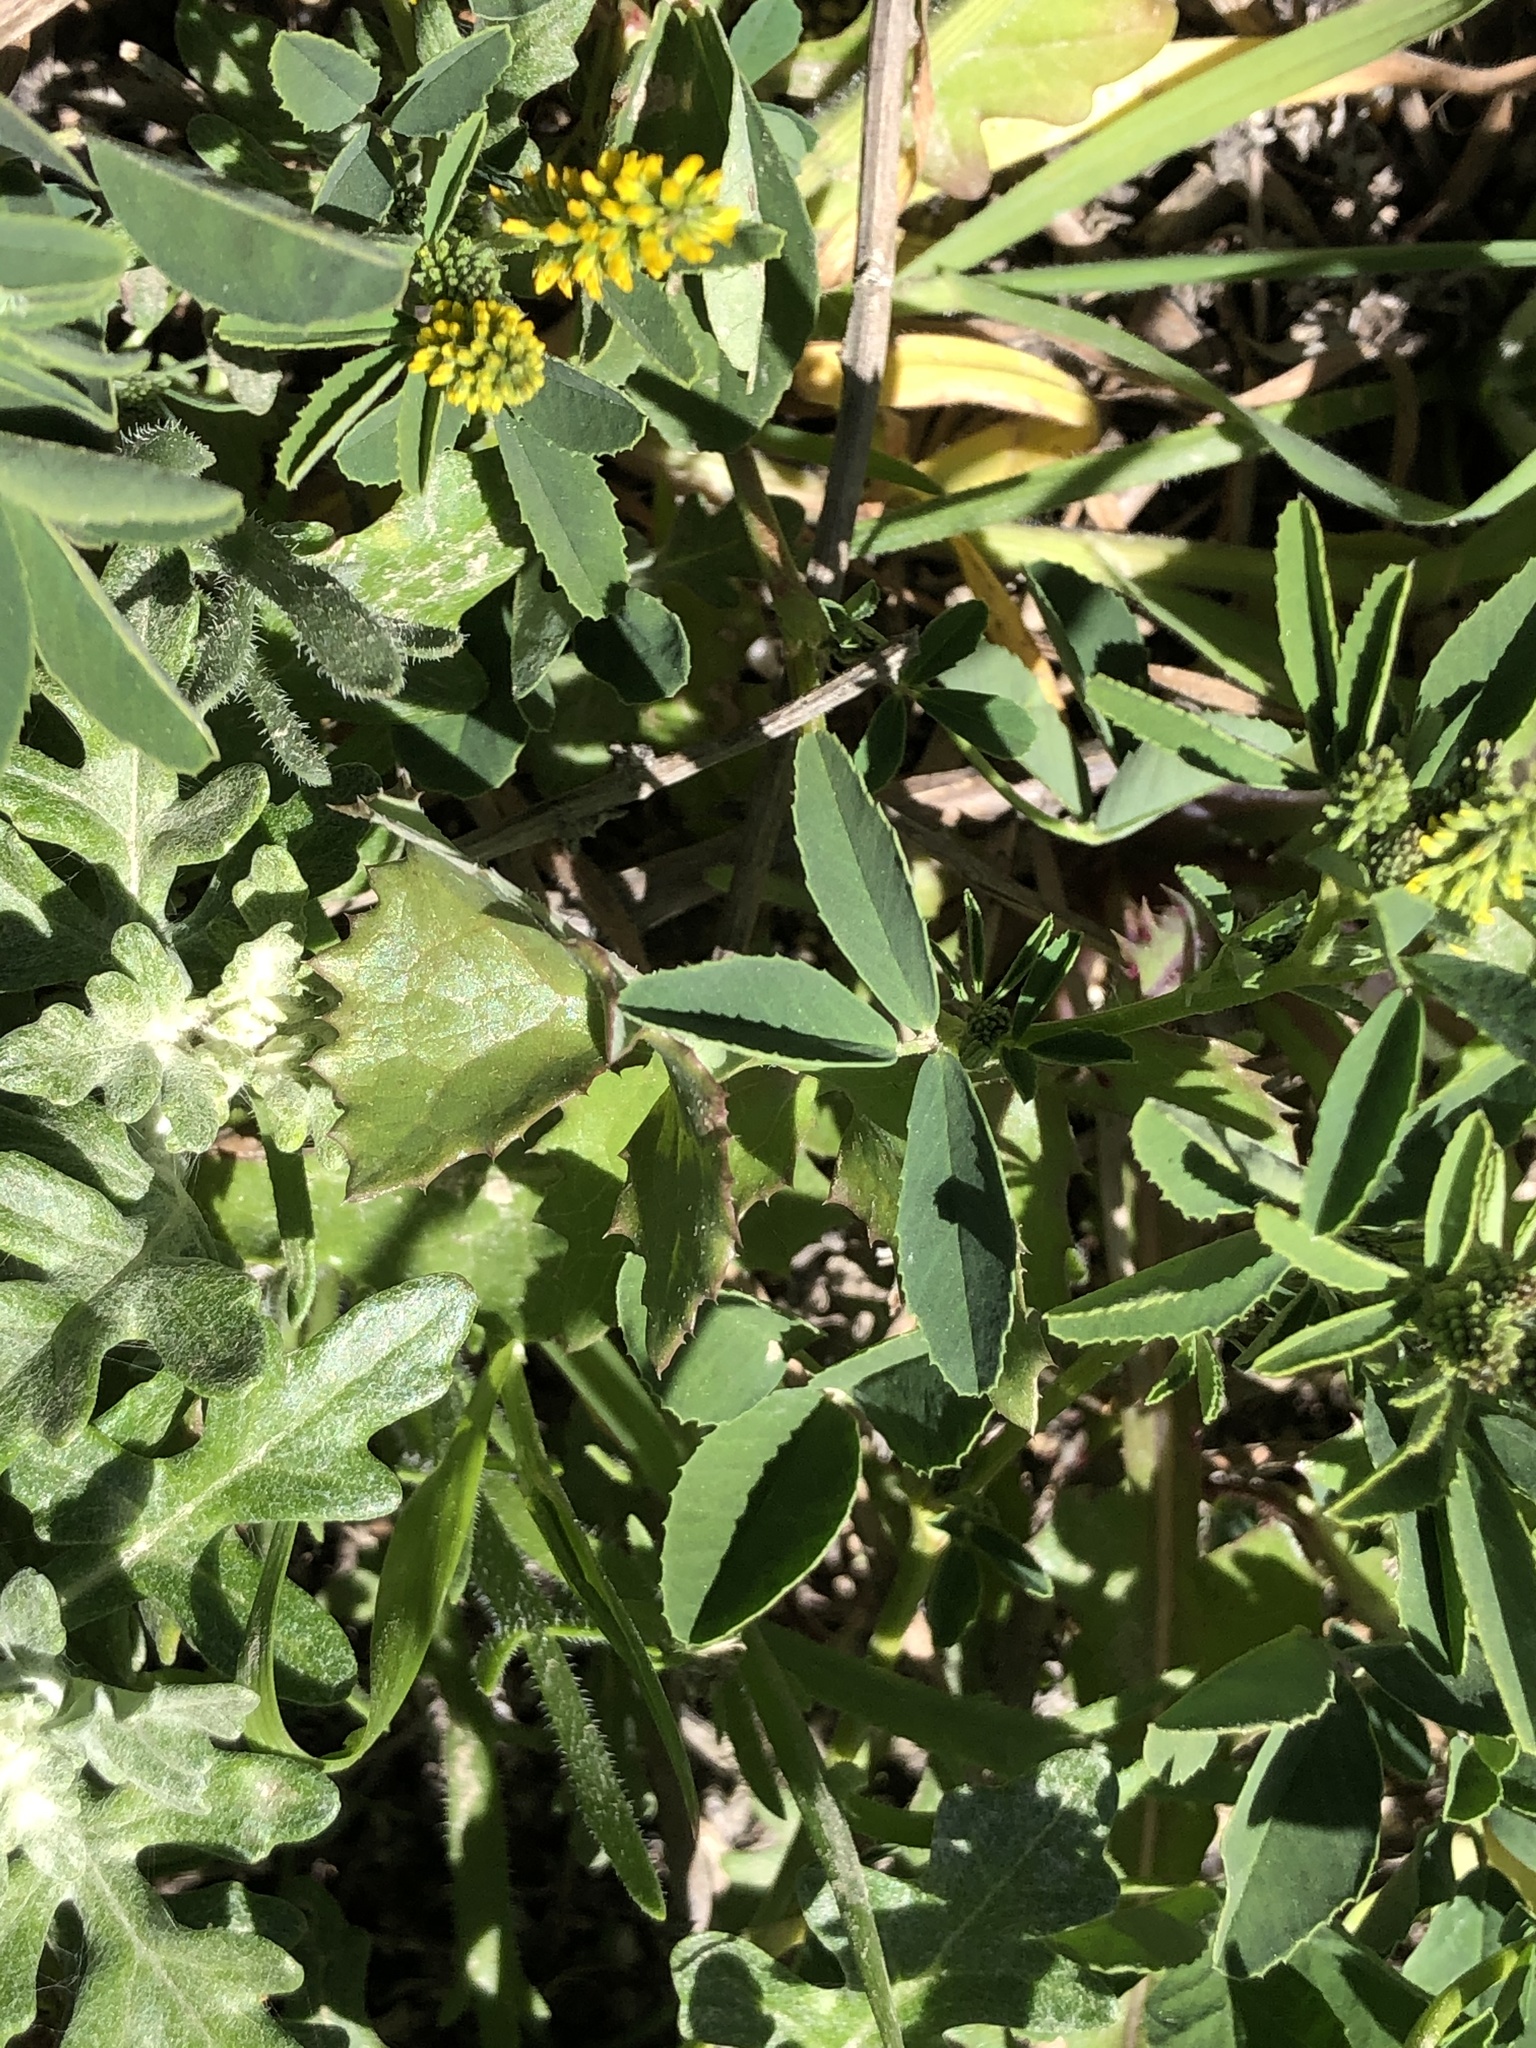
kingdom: Plantae
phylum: Tracheophyta
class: Magnoliopsida
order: Fabales
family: Fabaceae
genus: Melilotus
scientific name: Melilotus indicus
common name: Small melilot
